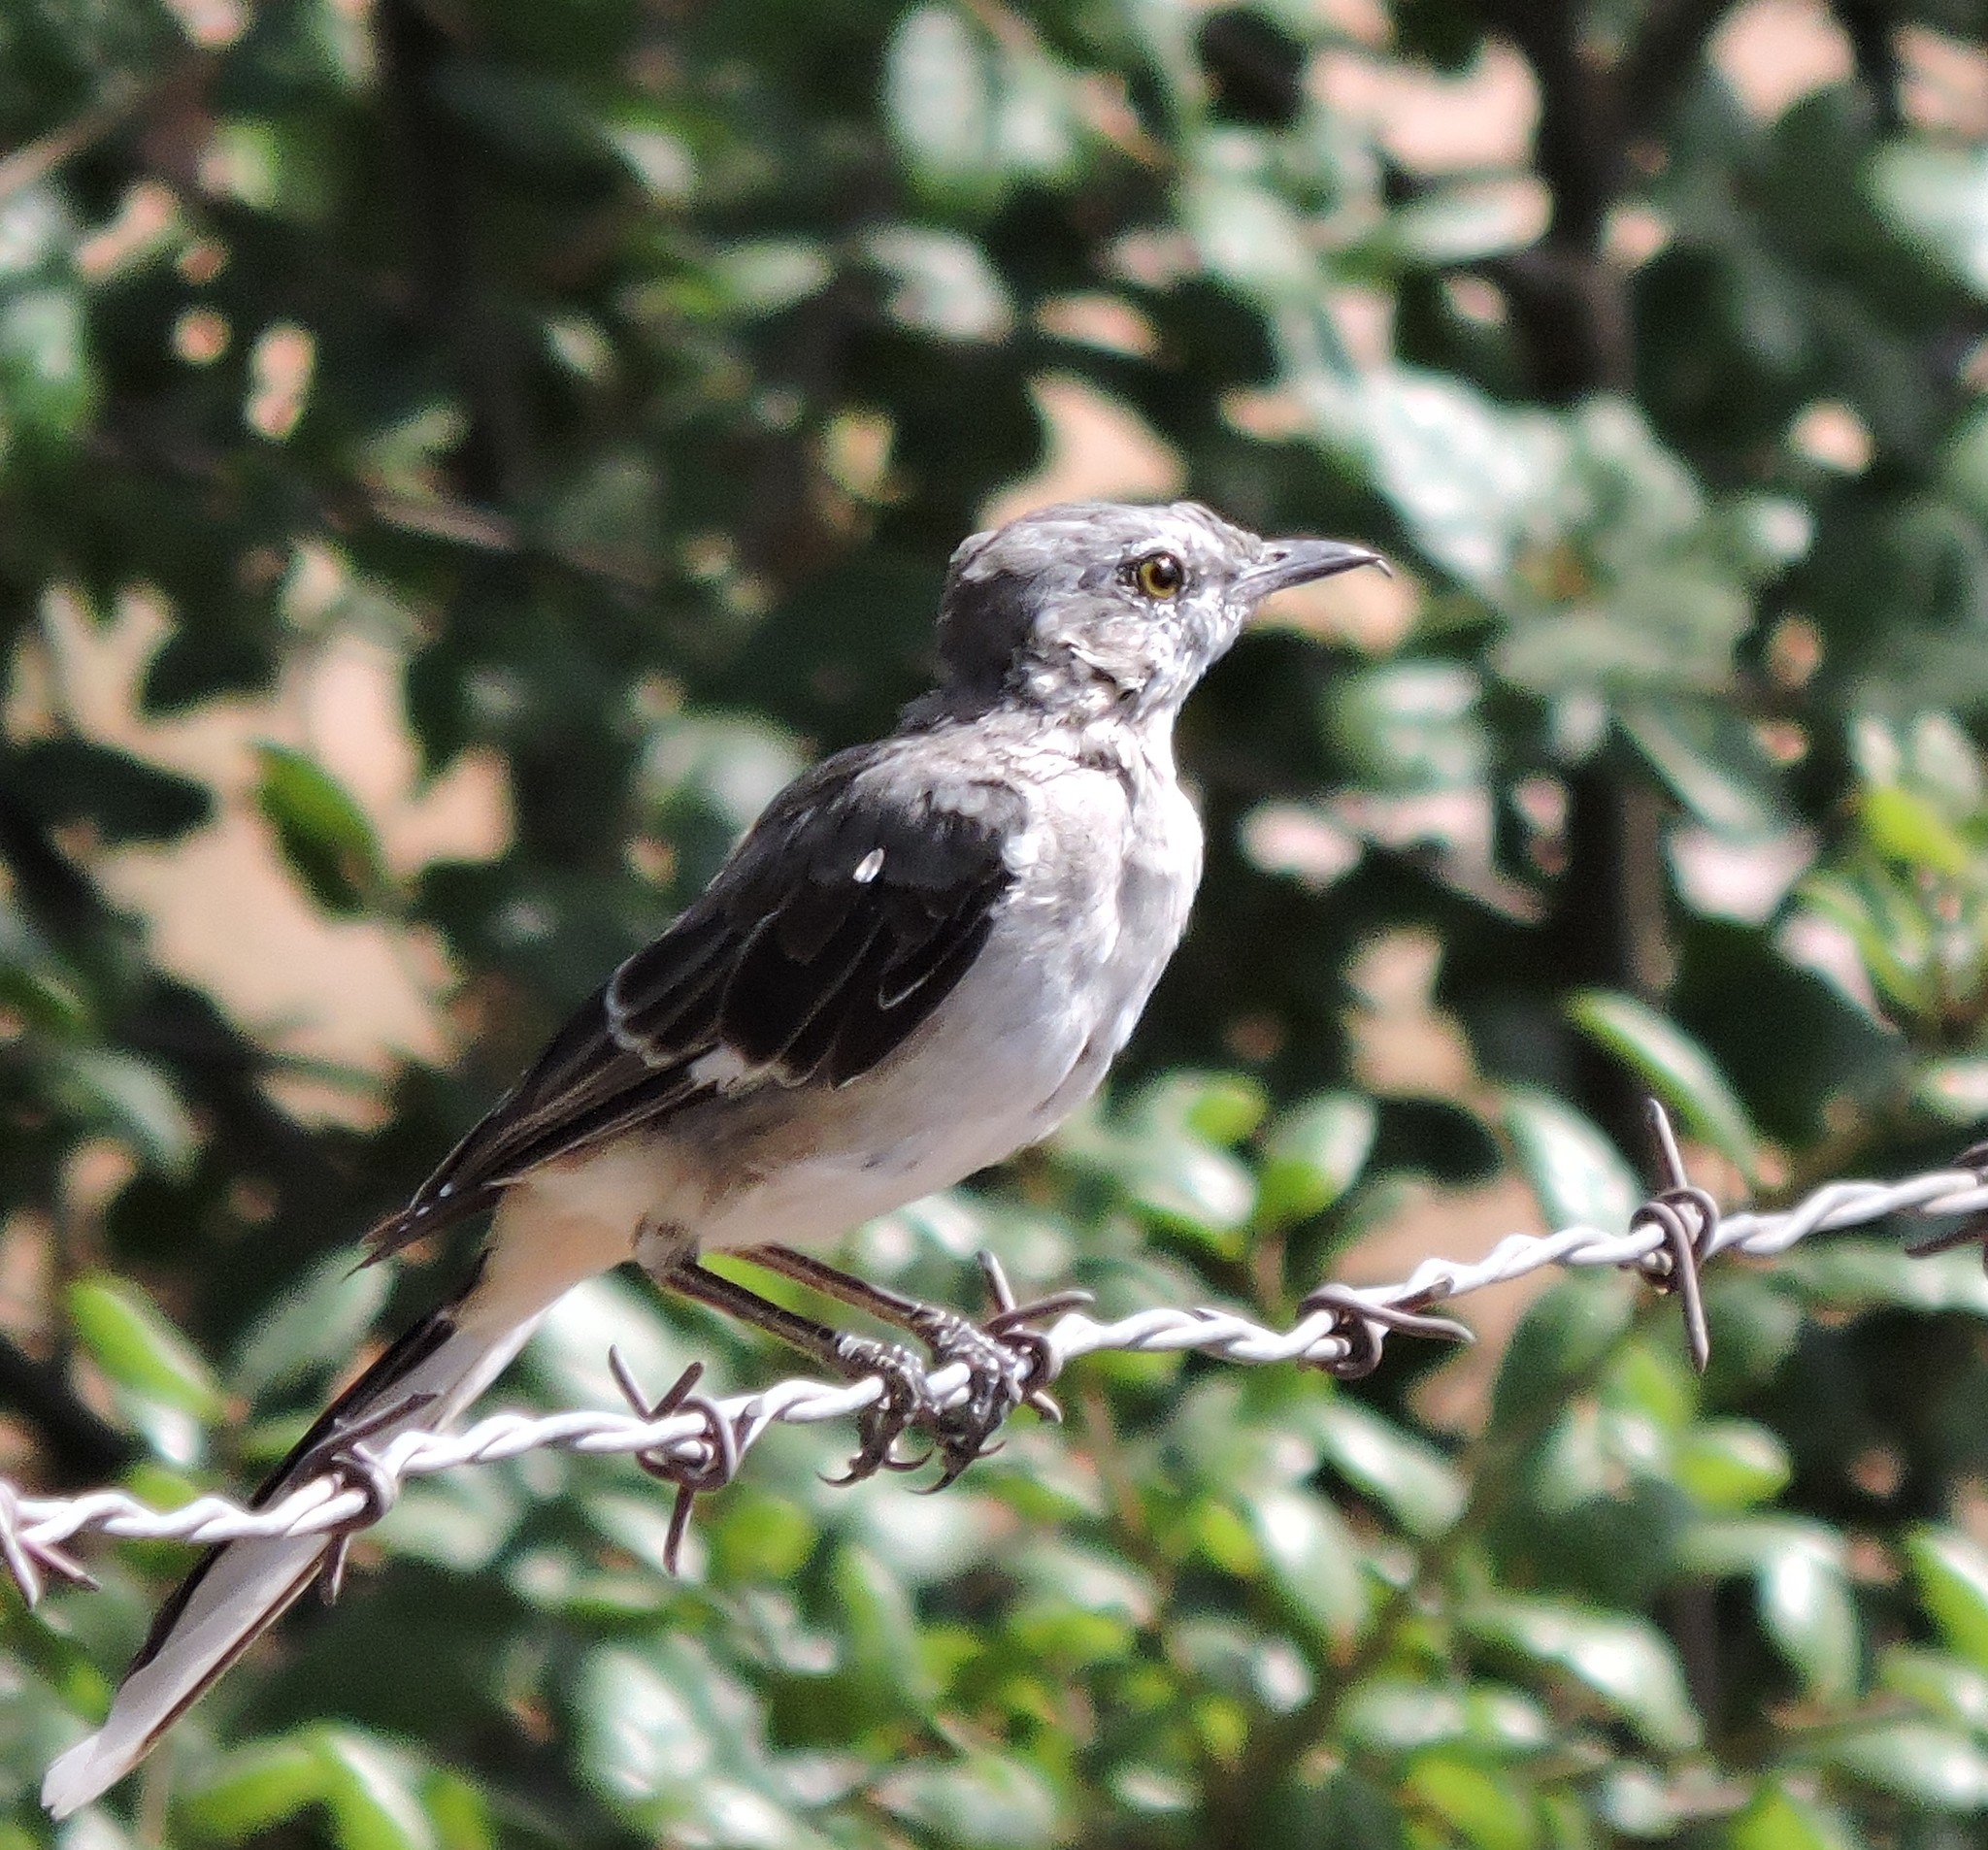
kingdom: Animalia
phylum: Chordata
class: Aves
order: Passeriformes
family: Mimidae
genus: Mimus
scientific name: Mimus polyglottos
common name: Northern mockingbird
